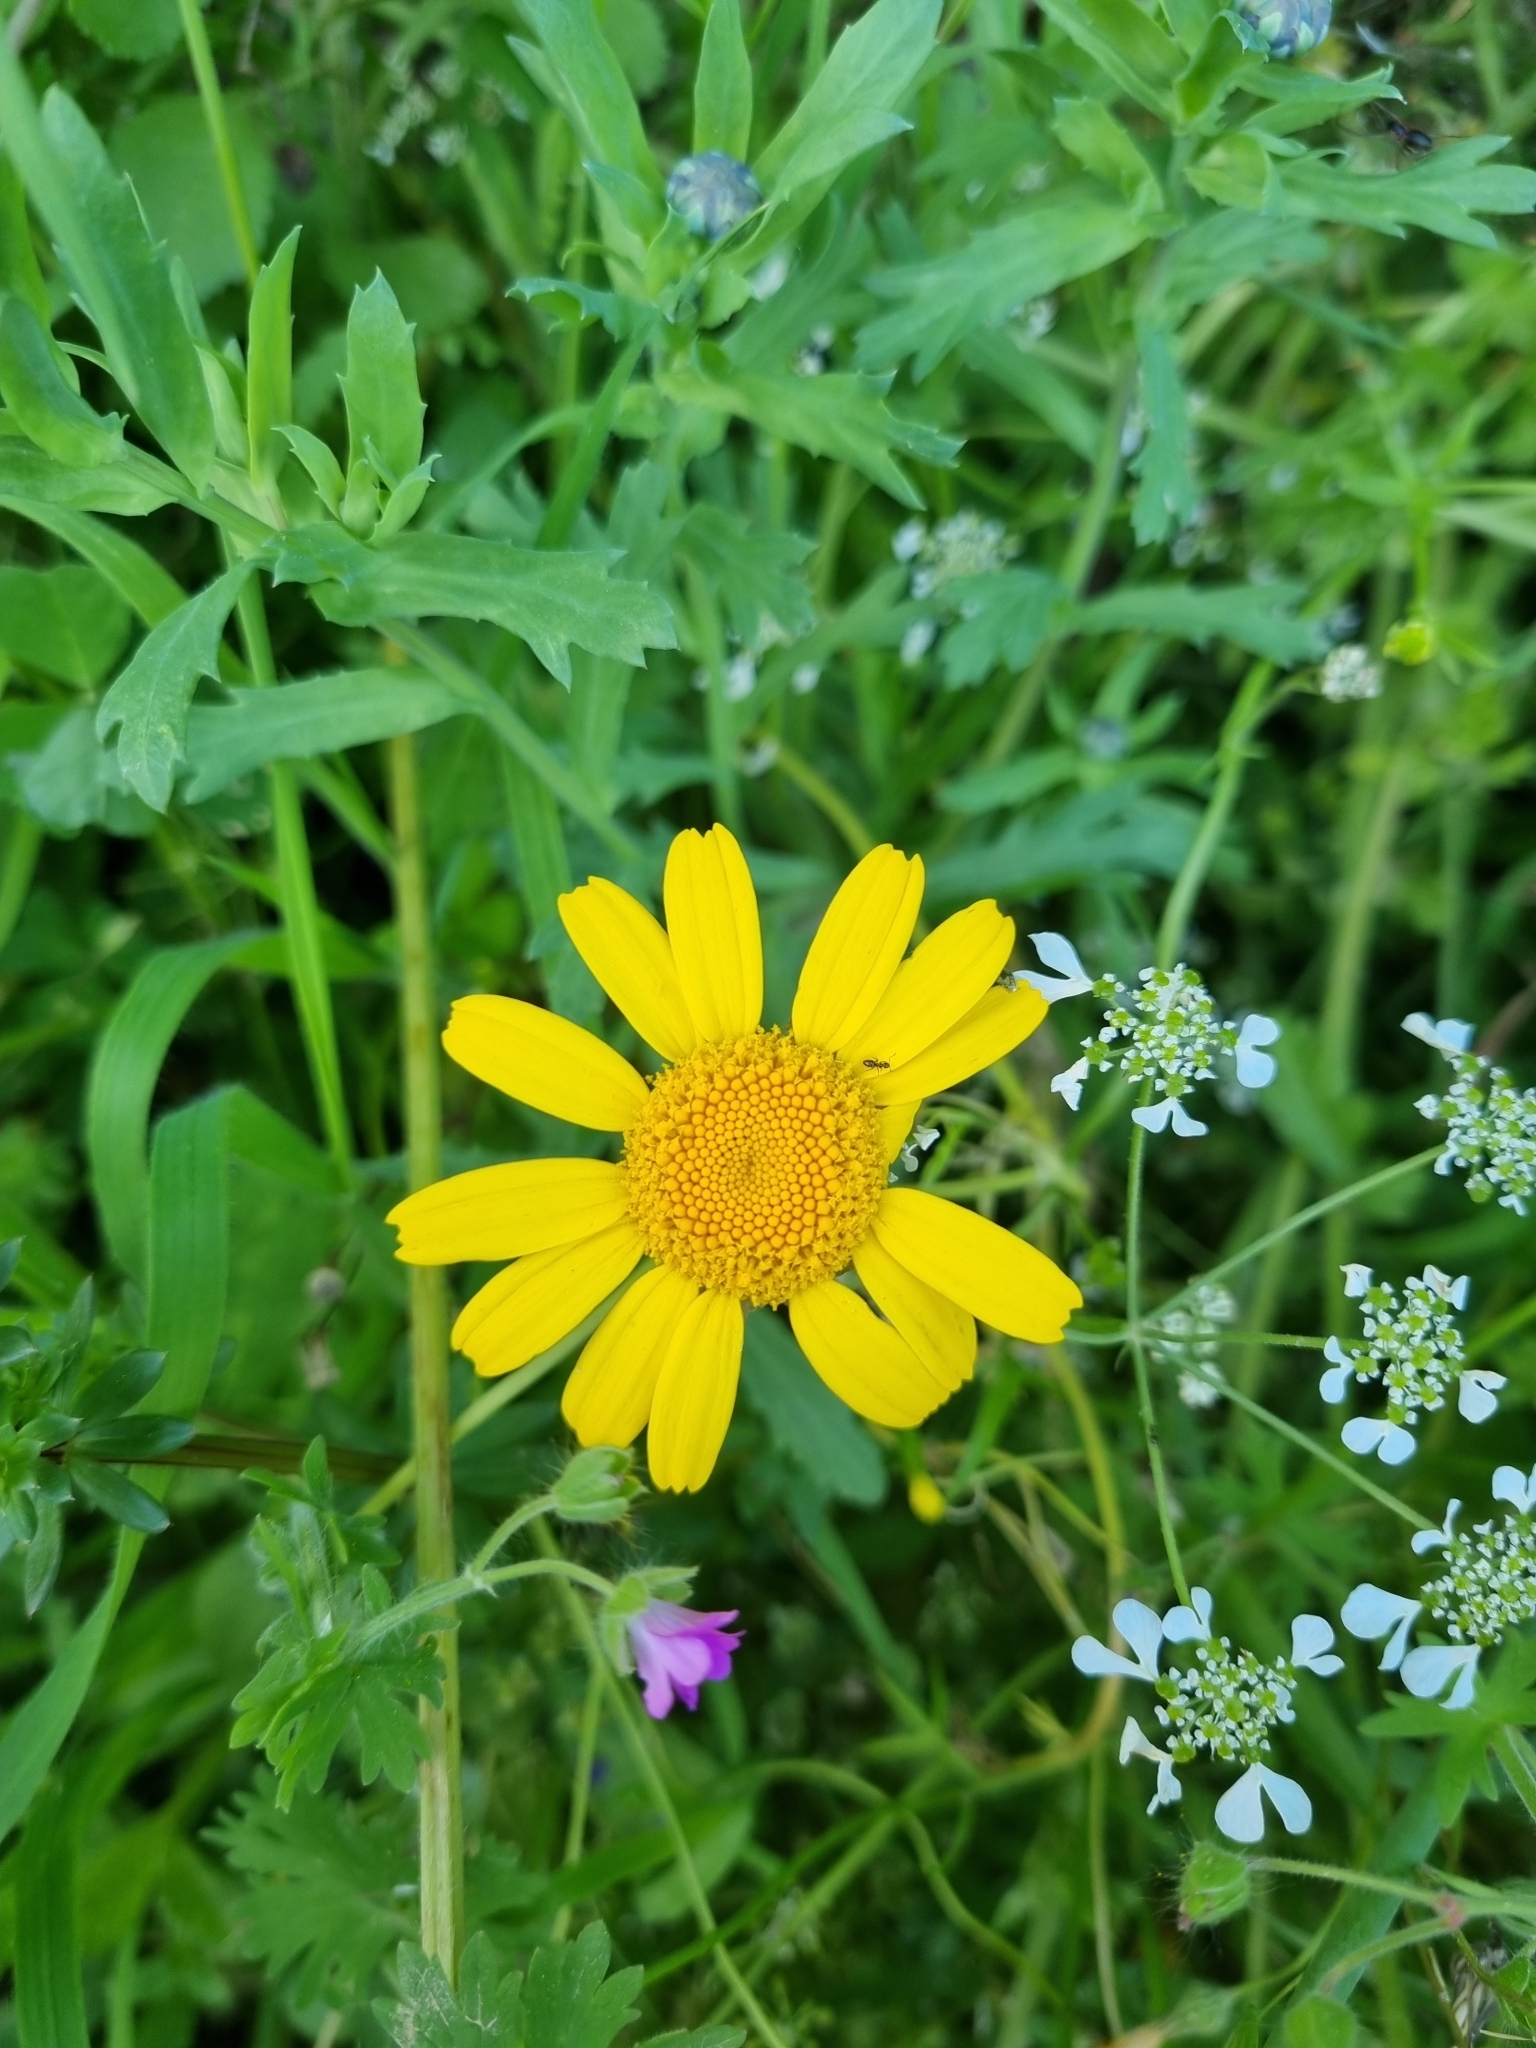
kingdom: Plantae
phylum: Tracheophyta
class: Magnoliopsida
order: Asterales
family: Asteraceae
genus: Glebionis
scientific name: Glebionis segetum
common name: Corndaisy
